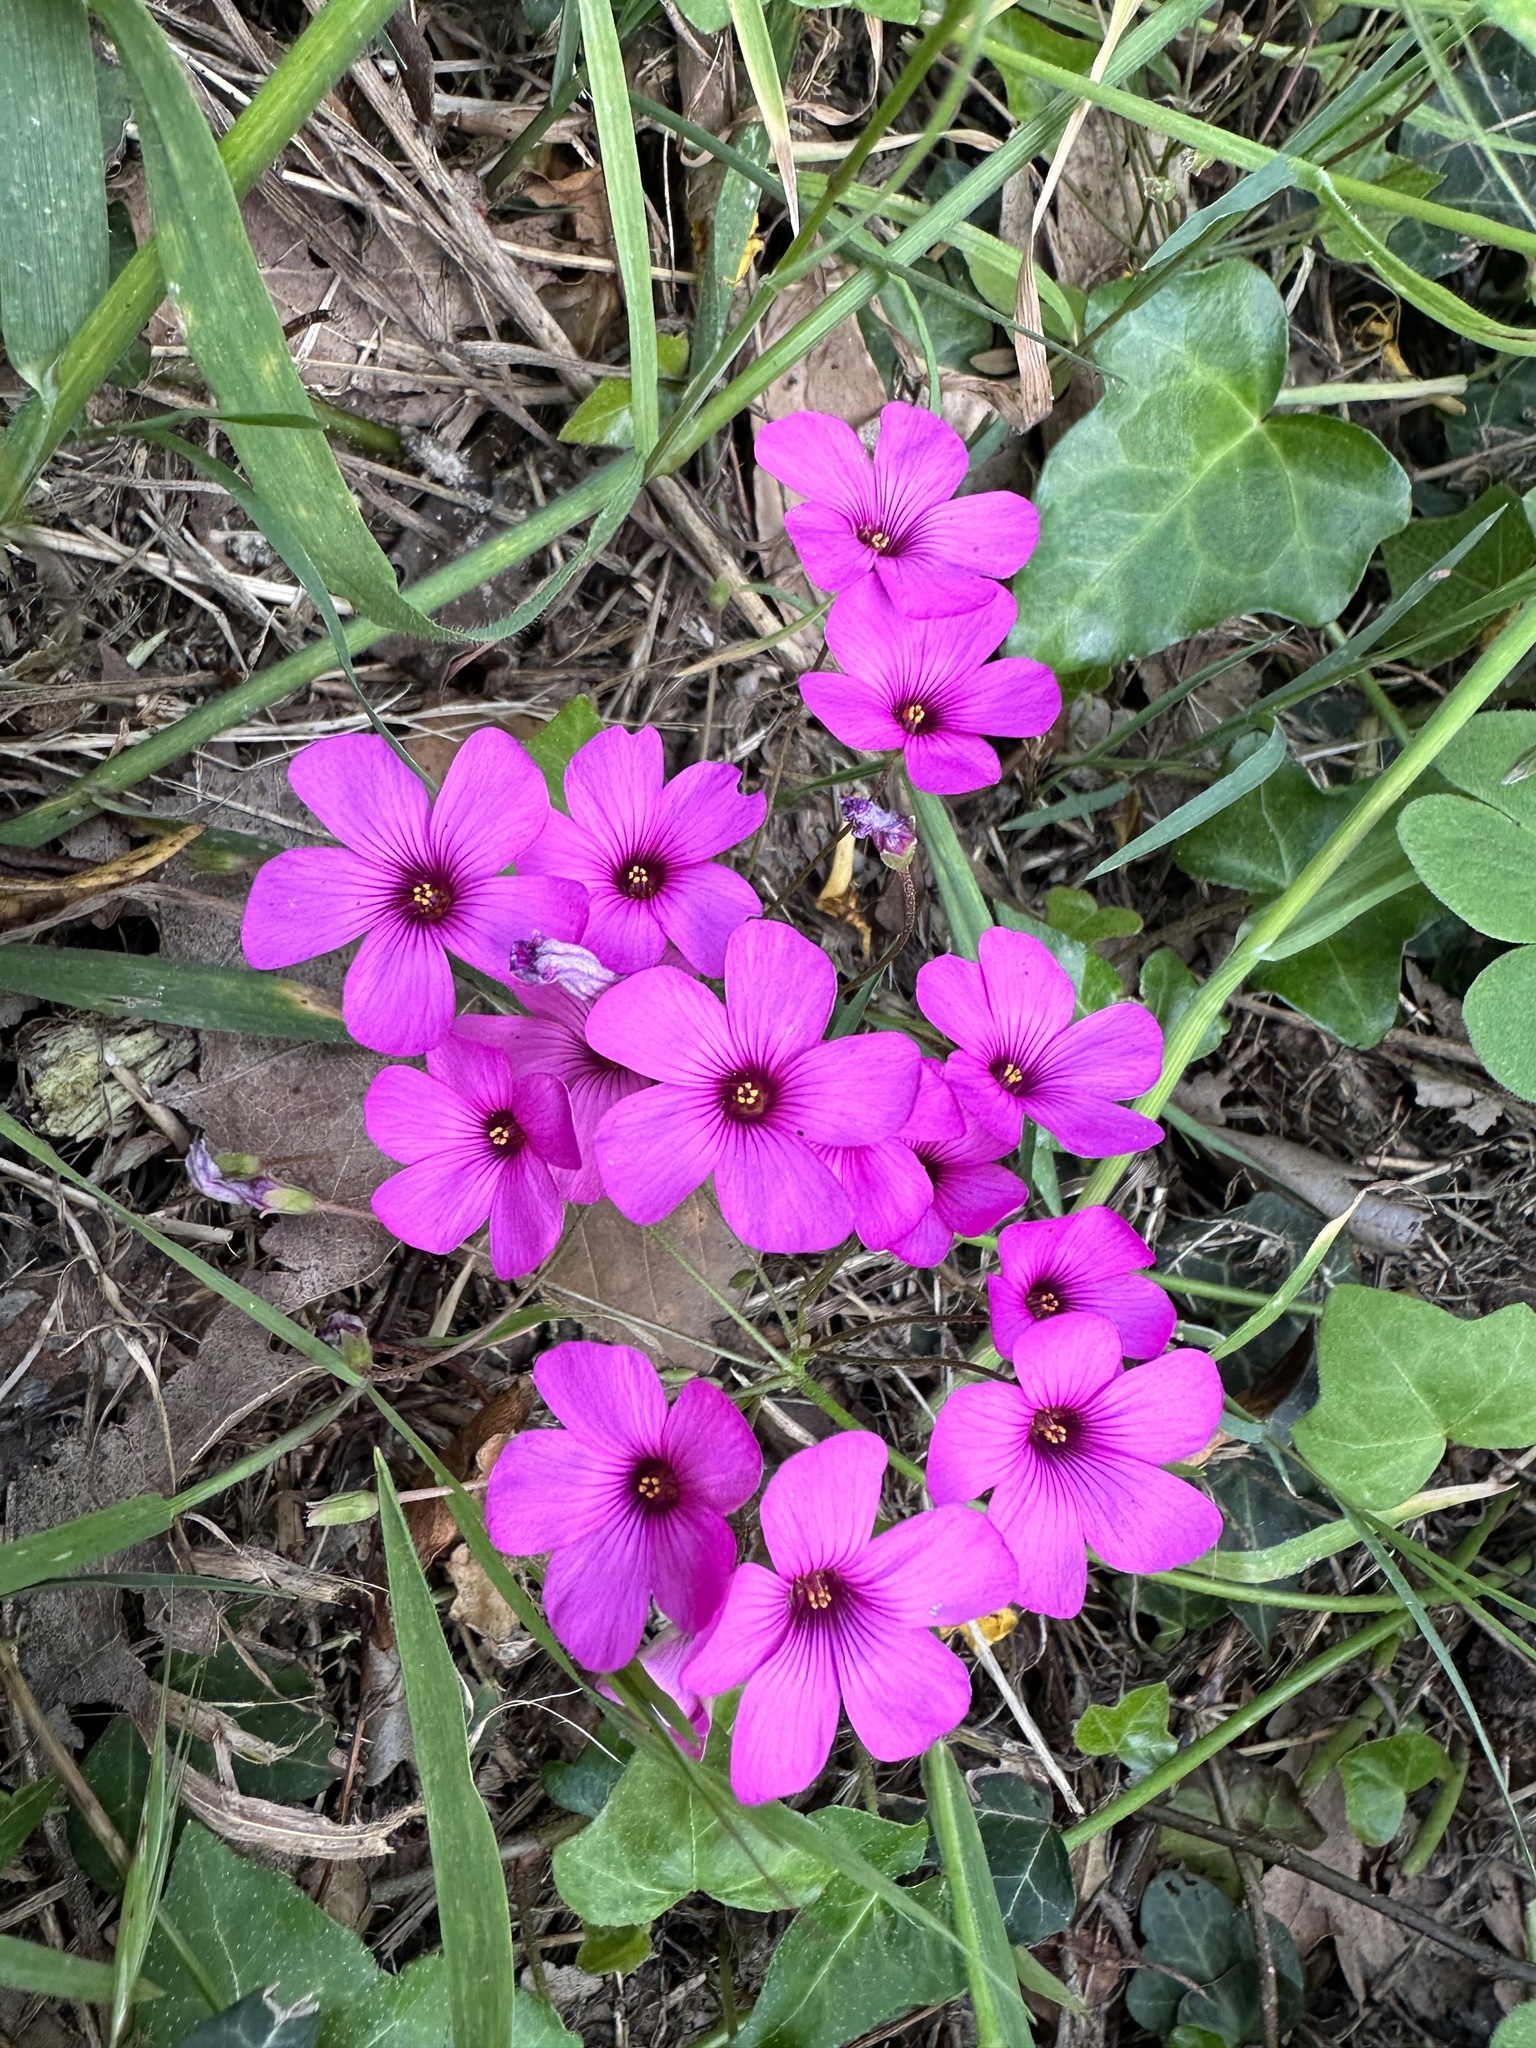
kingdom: Plantae
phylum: Tracheophyta
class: Magnoliopsida
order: Oxalidales
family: Oxalidaceae
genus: Oxalis
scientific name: Oxalis articulata
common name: Pink-sorrel
